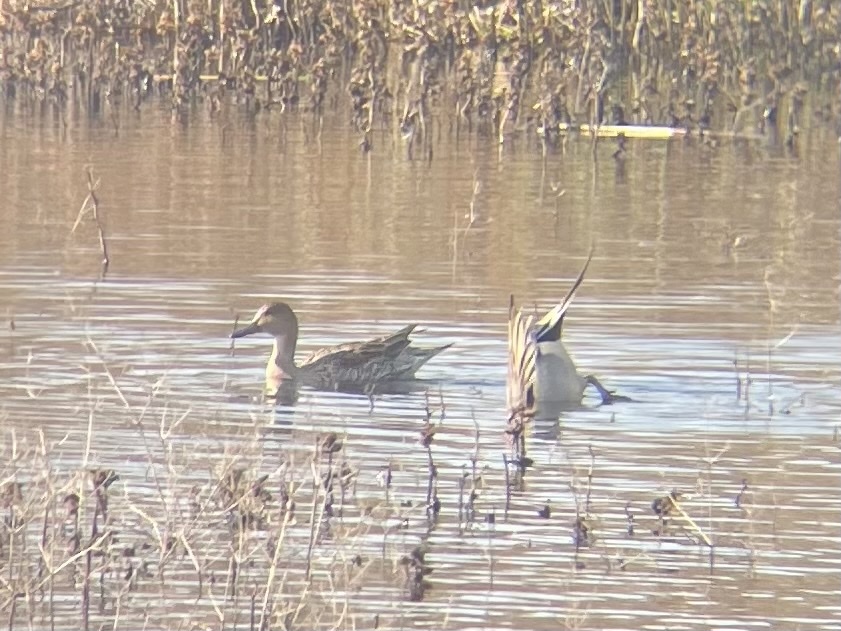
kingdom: Animalia
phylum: Chordata
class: Aves
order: Anseriformes
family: Anatidae
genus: Anas
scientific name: Anas acuta
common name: Northern pintail
